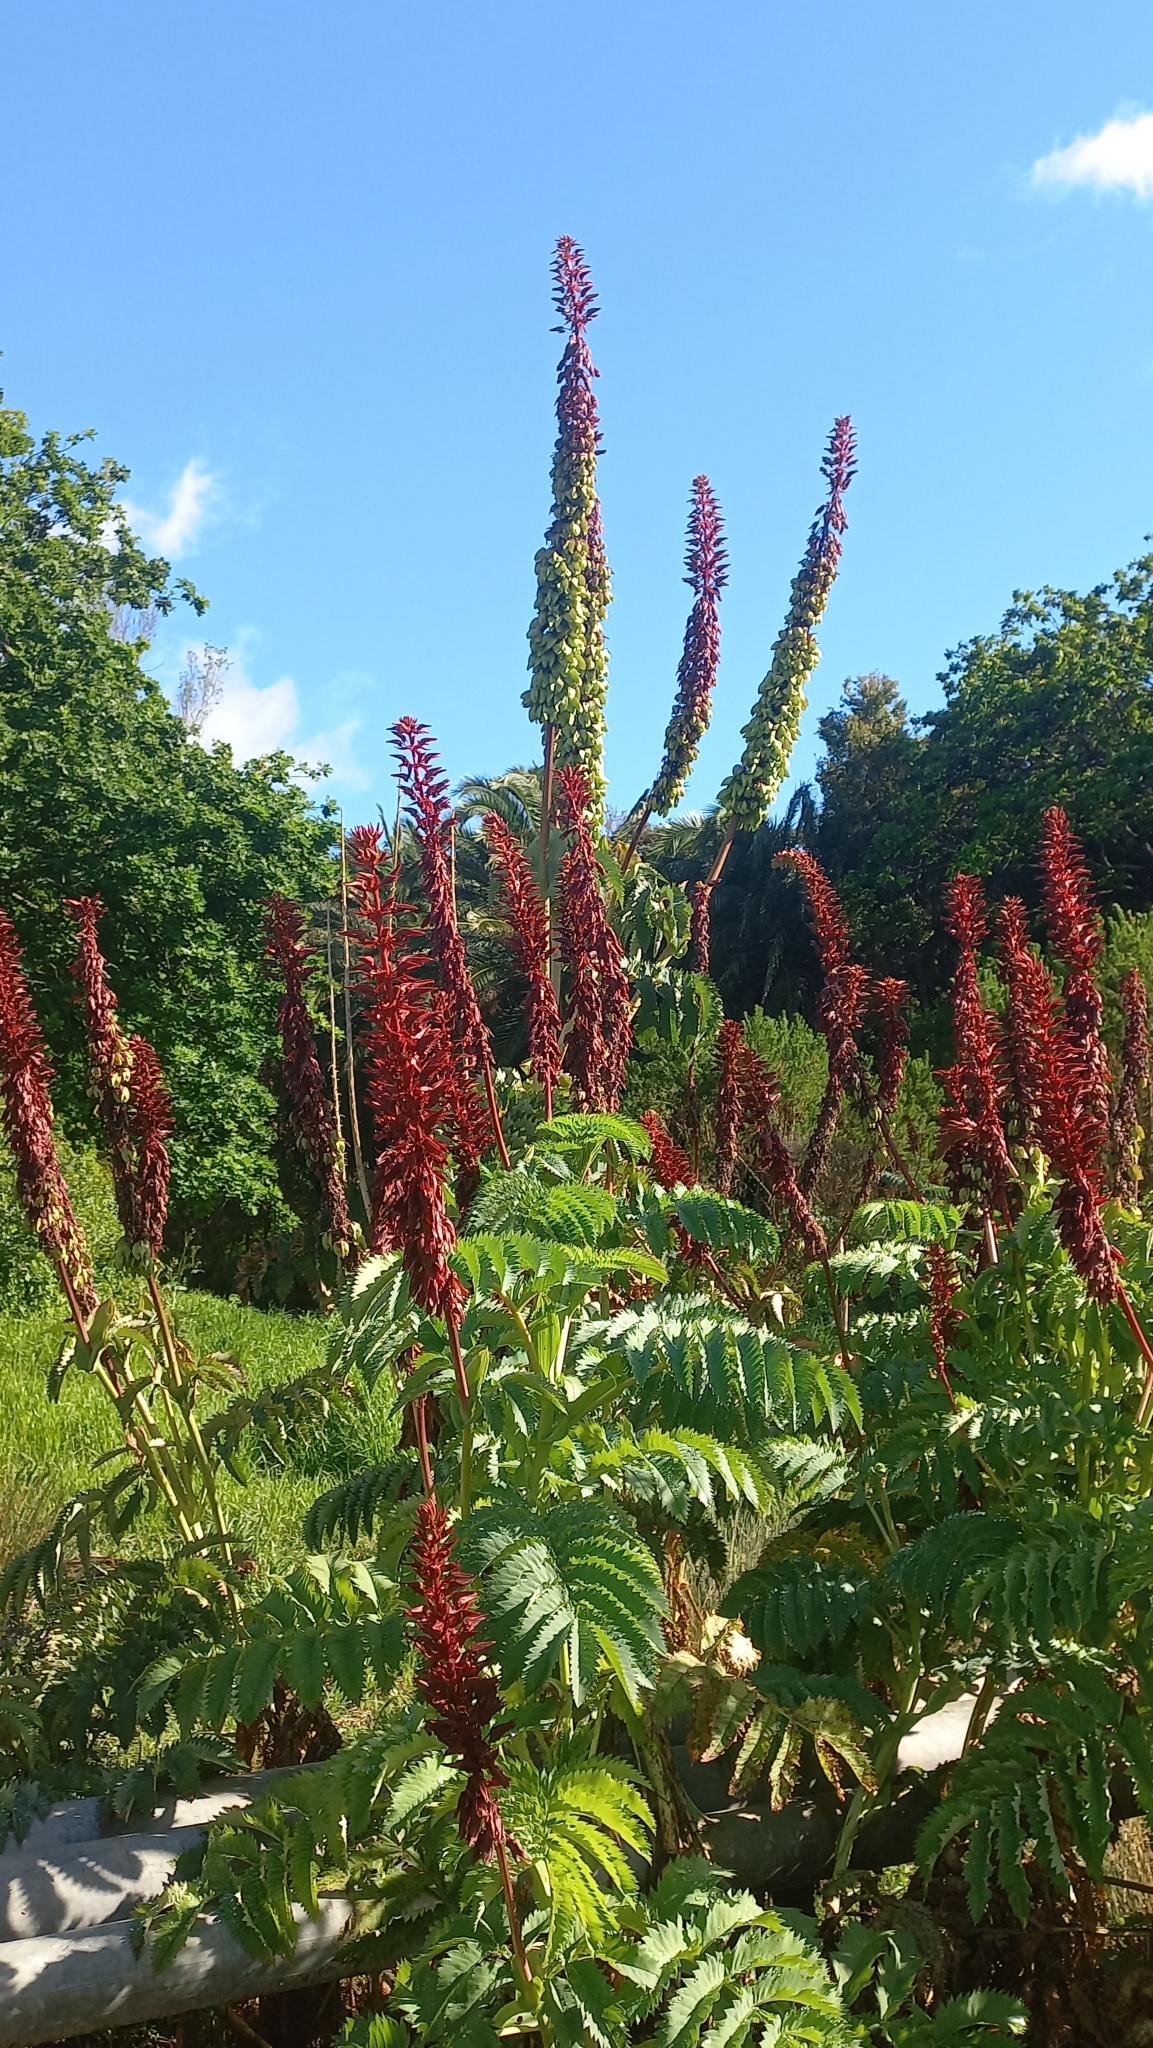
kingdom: Plantae
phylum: Tracheophyta
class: Magnoliopsida
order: Geraniales
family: Melianthaceae
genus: Melianthus
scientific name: Melianthus major
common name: Honey-flower
